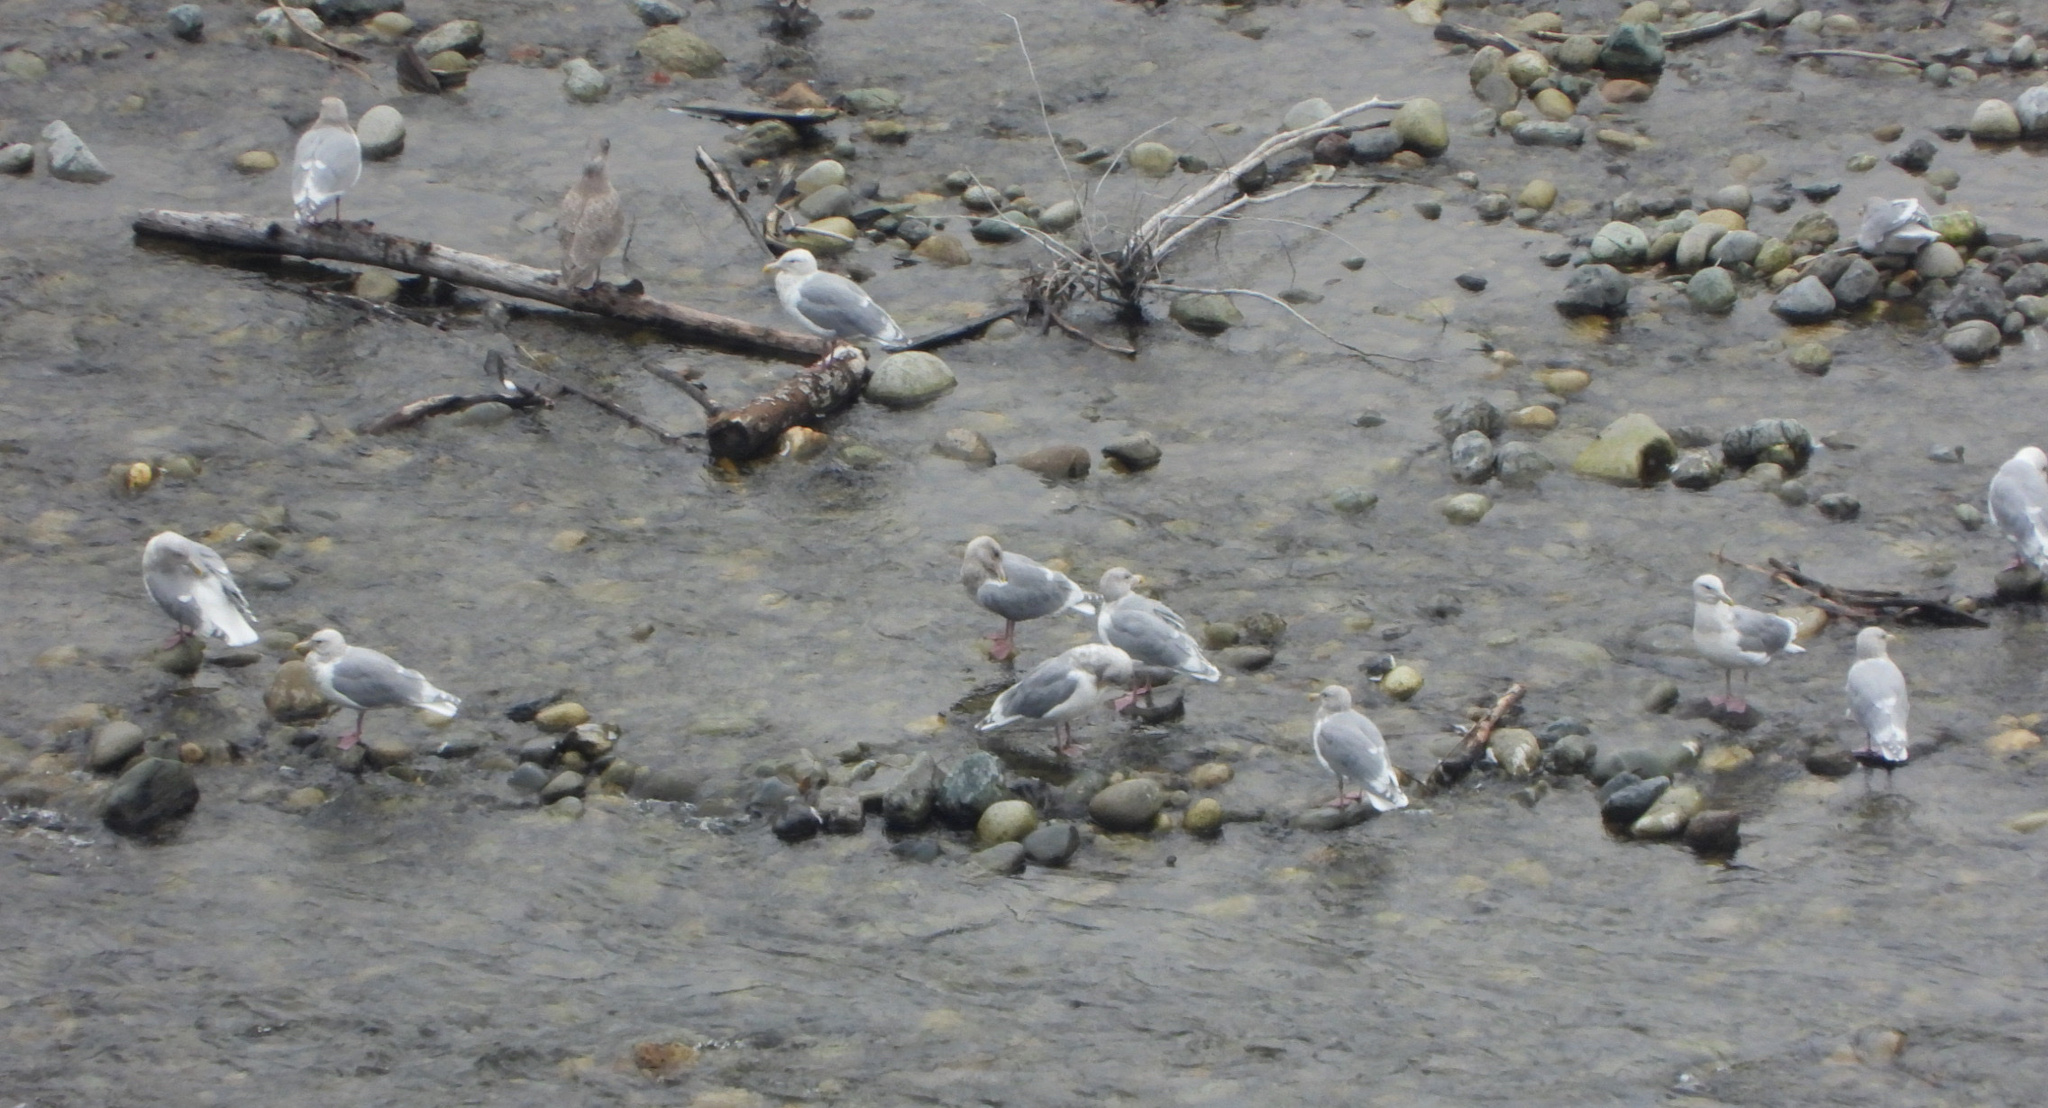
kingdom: Animalia
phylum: Chordata
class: Aves
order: Charadriiformes
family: Laridae
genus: Larus
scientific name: Larus glaucescens
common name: Glaucous-winged gull
